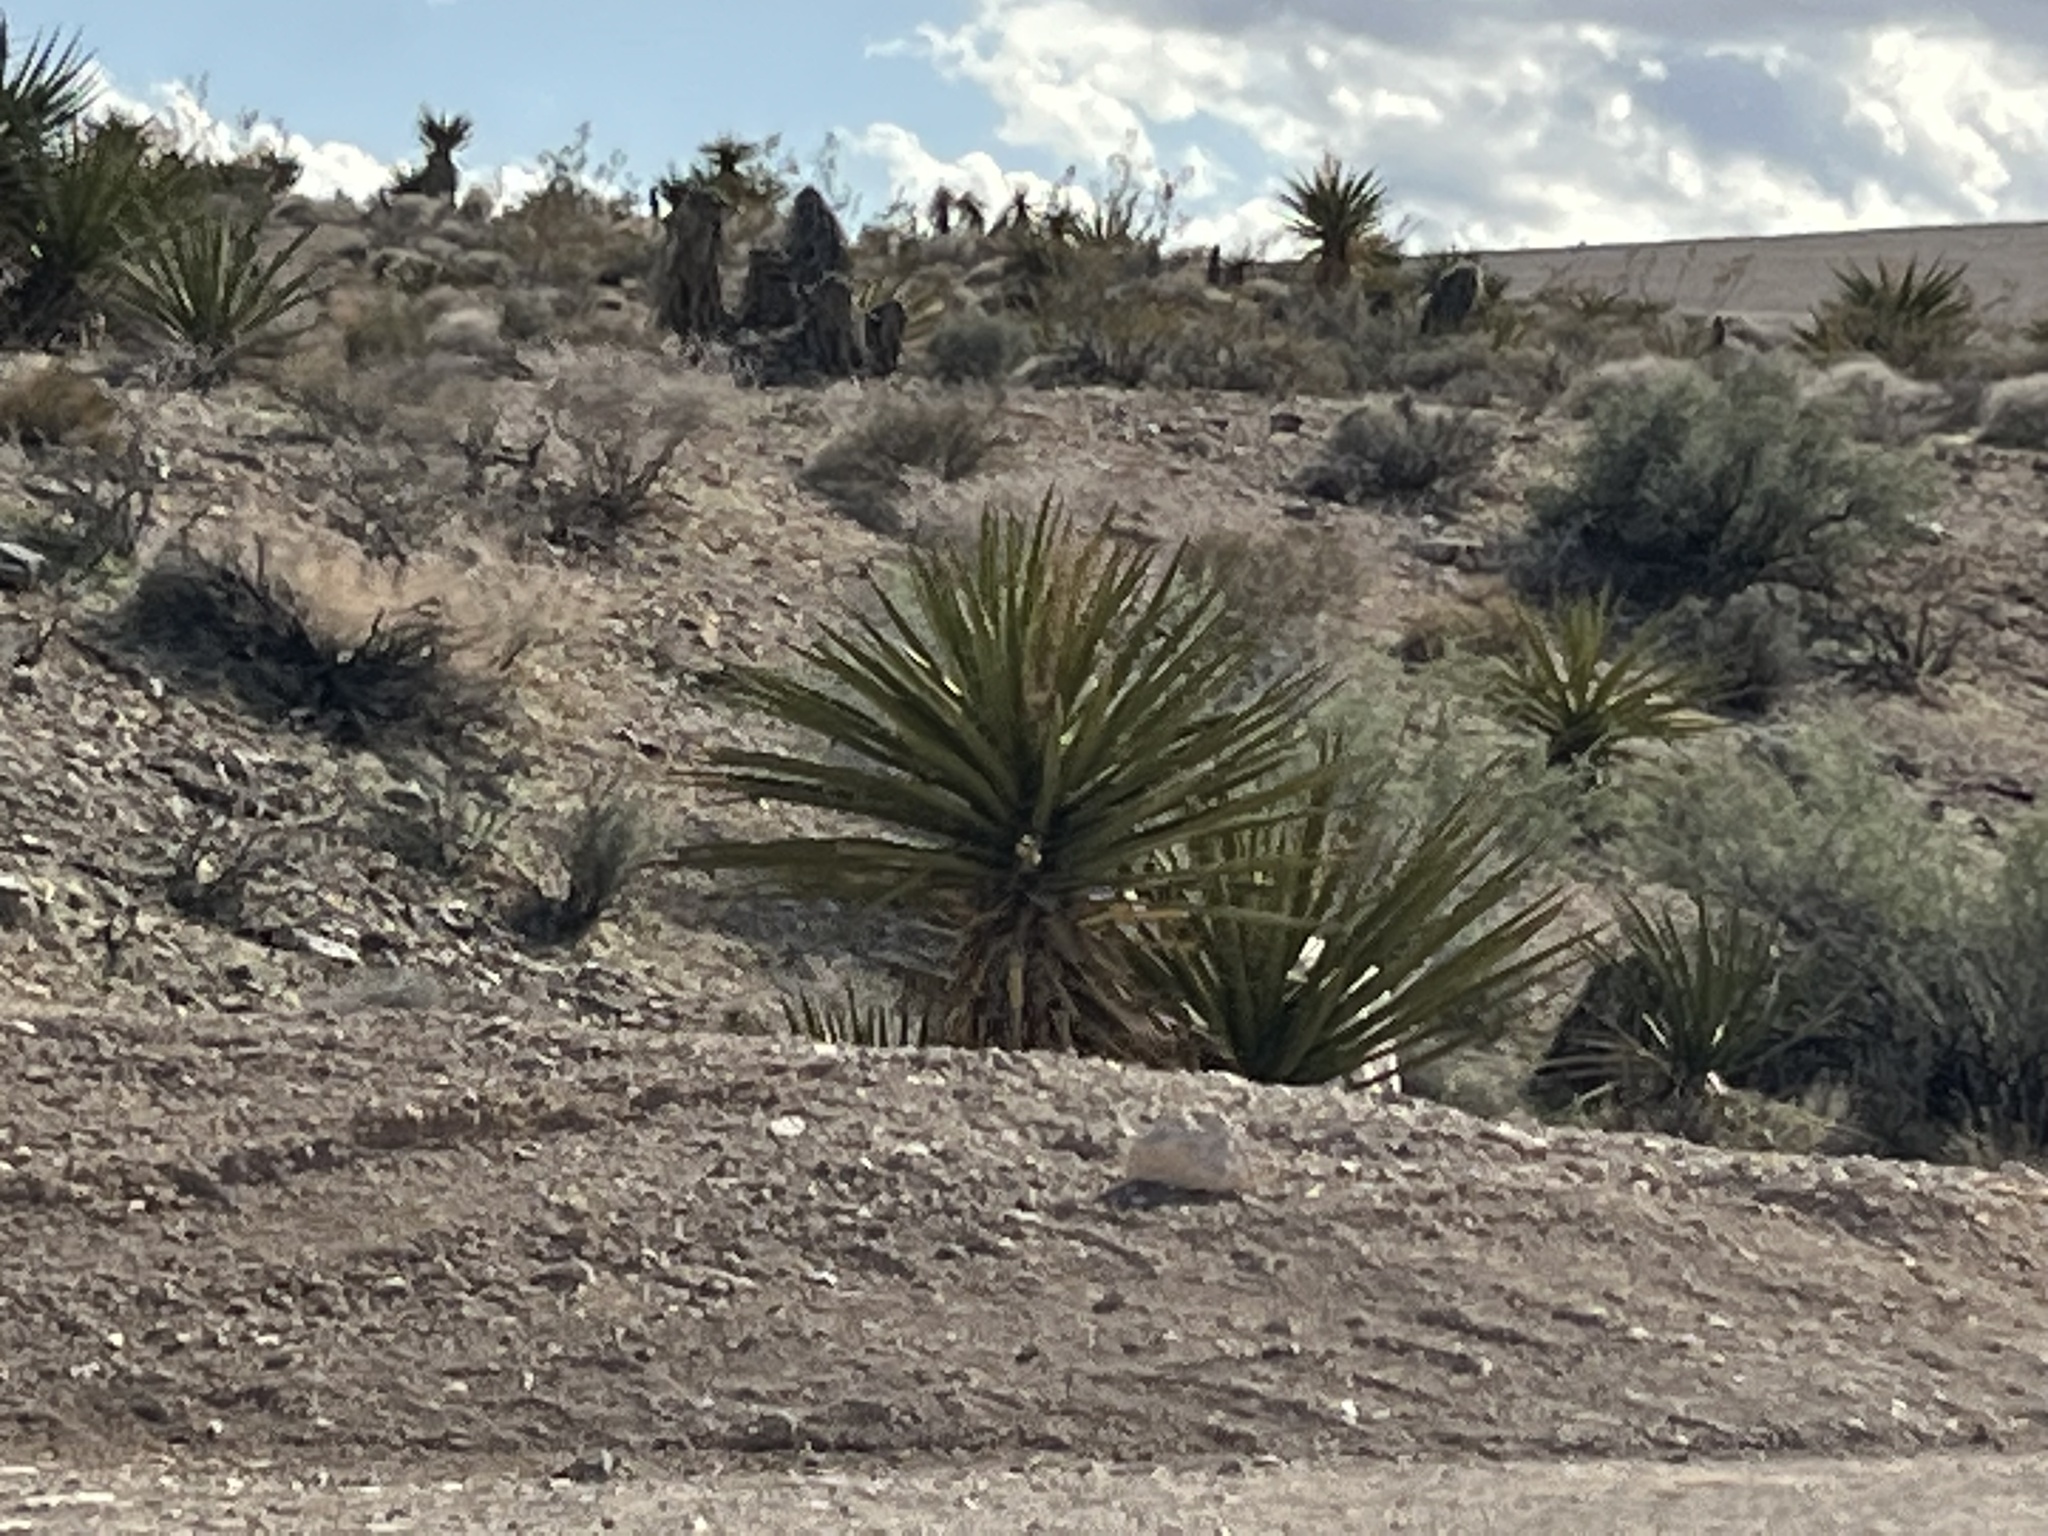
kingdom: Plantae
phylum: Tracheophyta
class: Liliopsida
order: Asparagales
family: Asparagaceae
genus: Yucca
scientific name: Yucca schidigera
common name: Mojave yucca
